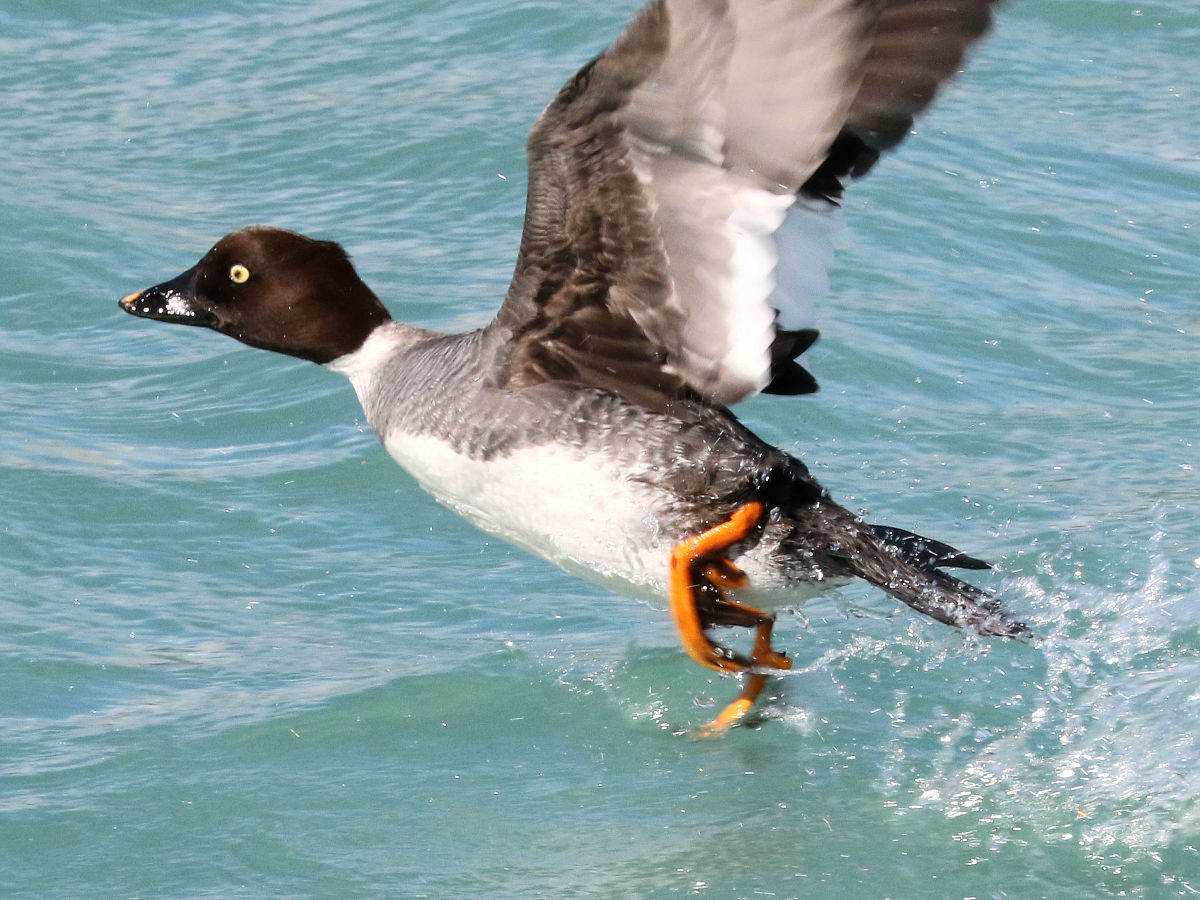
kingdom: Animalia
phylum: Chordata
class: Aves
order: Anseriformes
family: Anatidae
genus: Bucephala
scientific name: Bucephala clangula
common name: Common goldeneye
